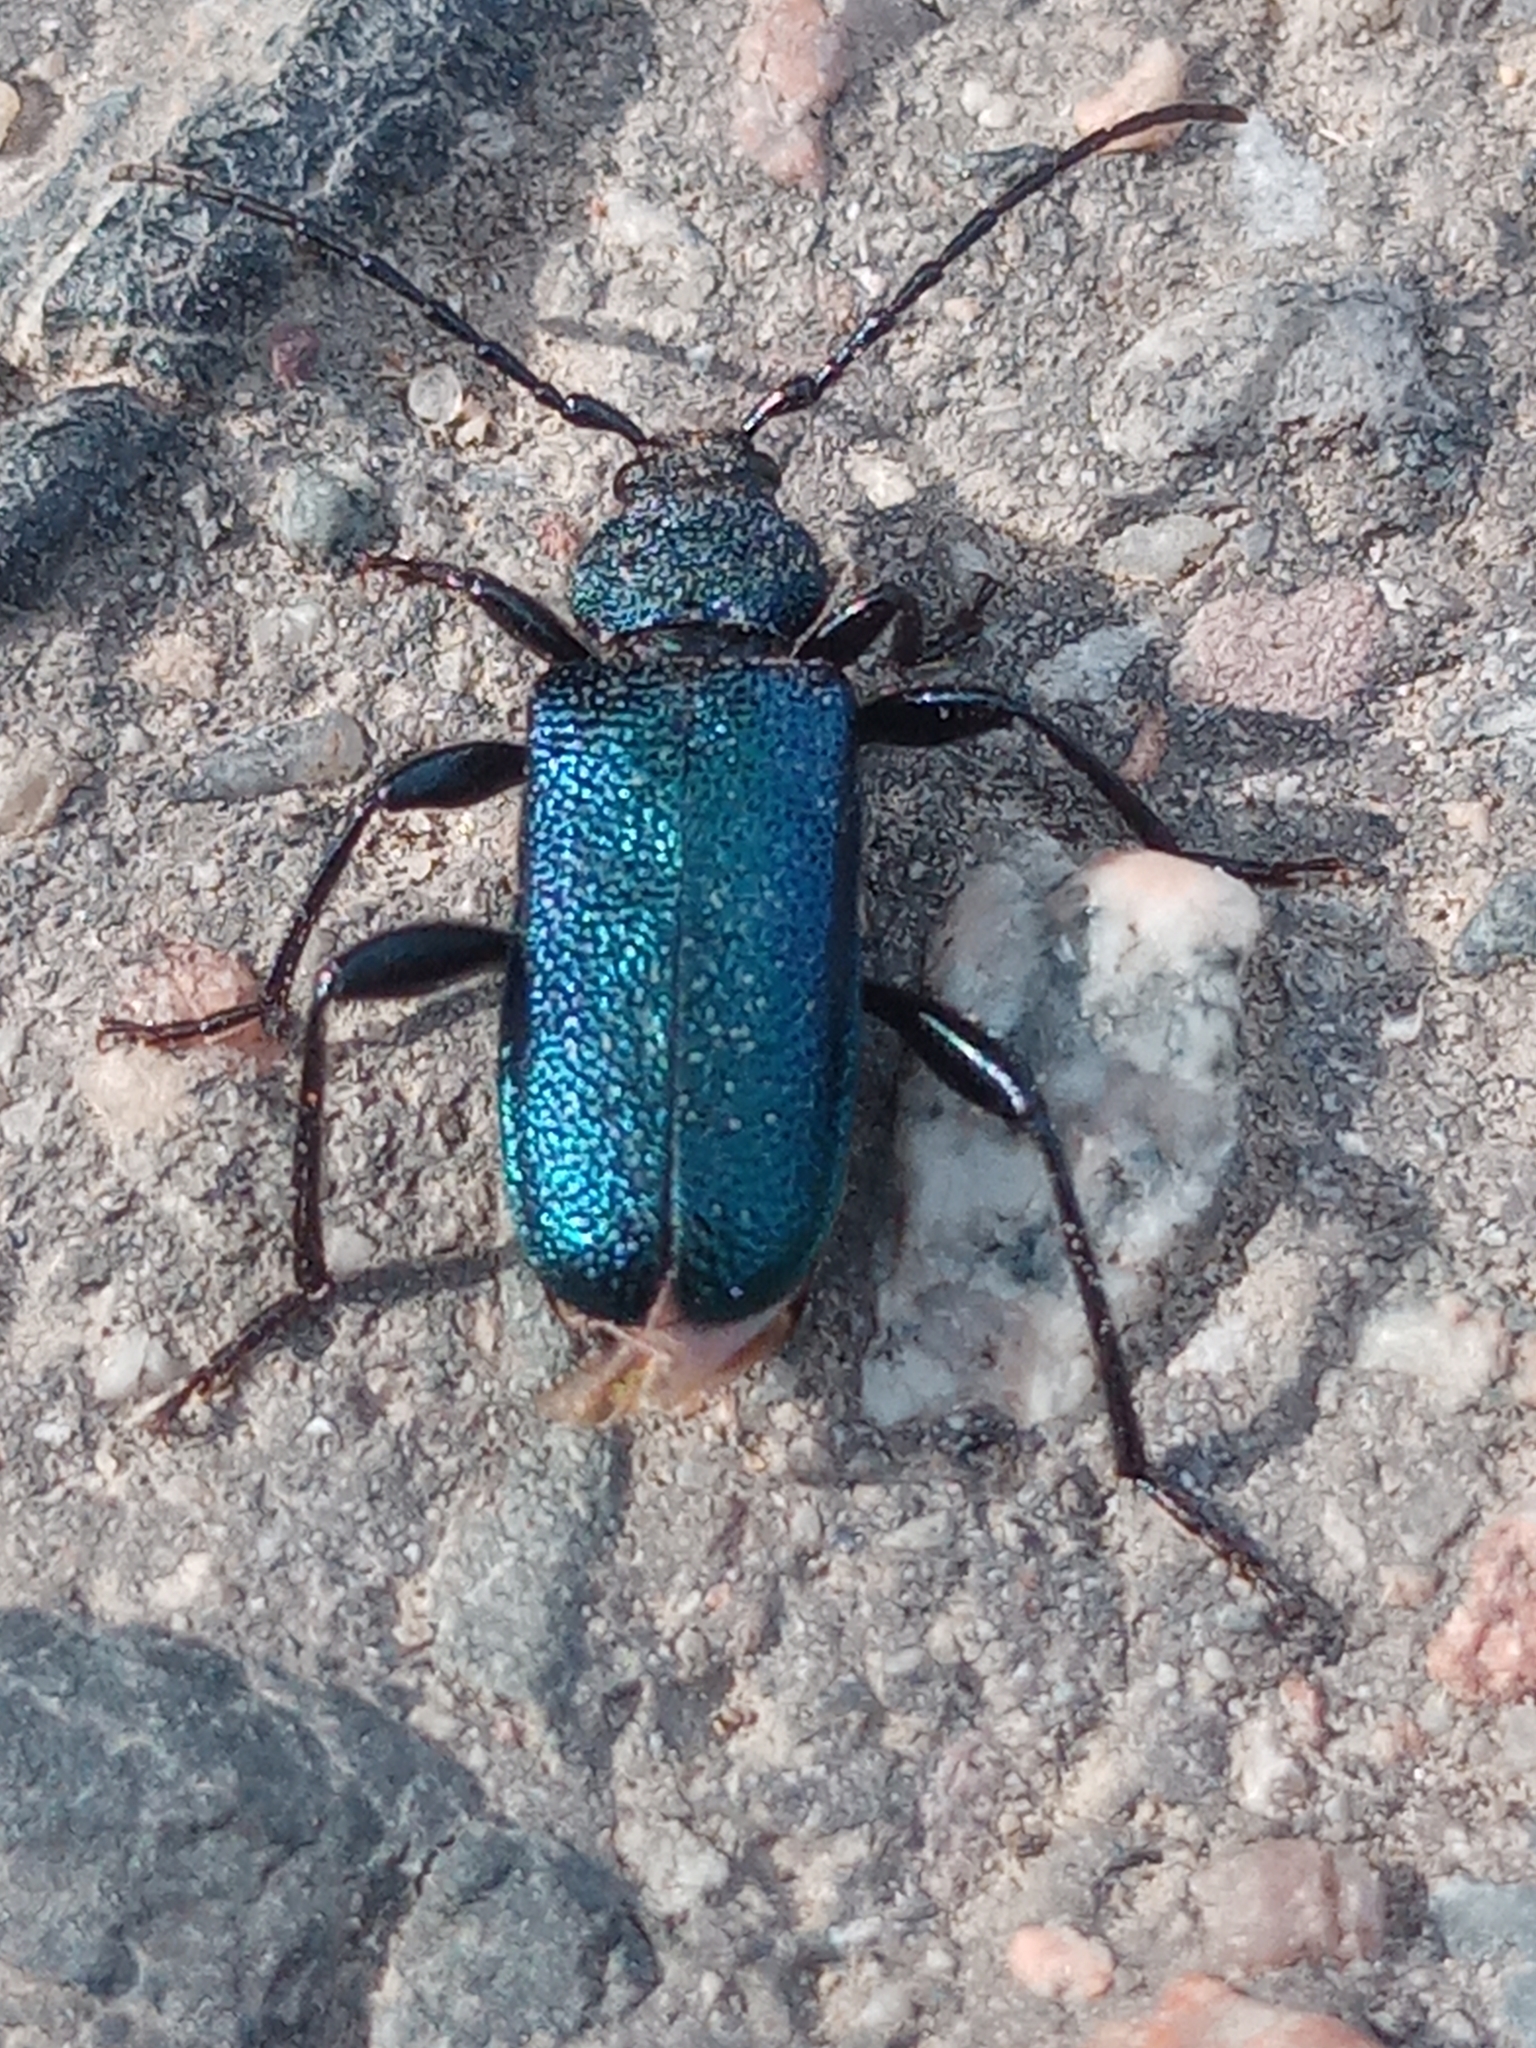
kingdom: Animalia
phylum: Arthropoda
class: Insecta
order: Coleoptera
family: Cerambycidae
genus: Callidium
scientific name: Callidium violaceum
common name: Violet tanbark beetle
